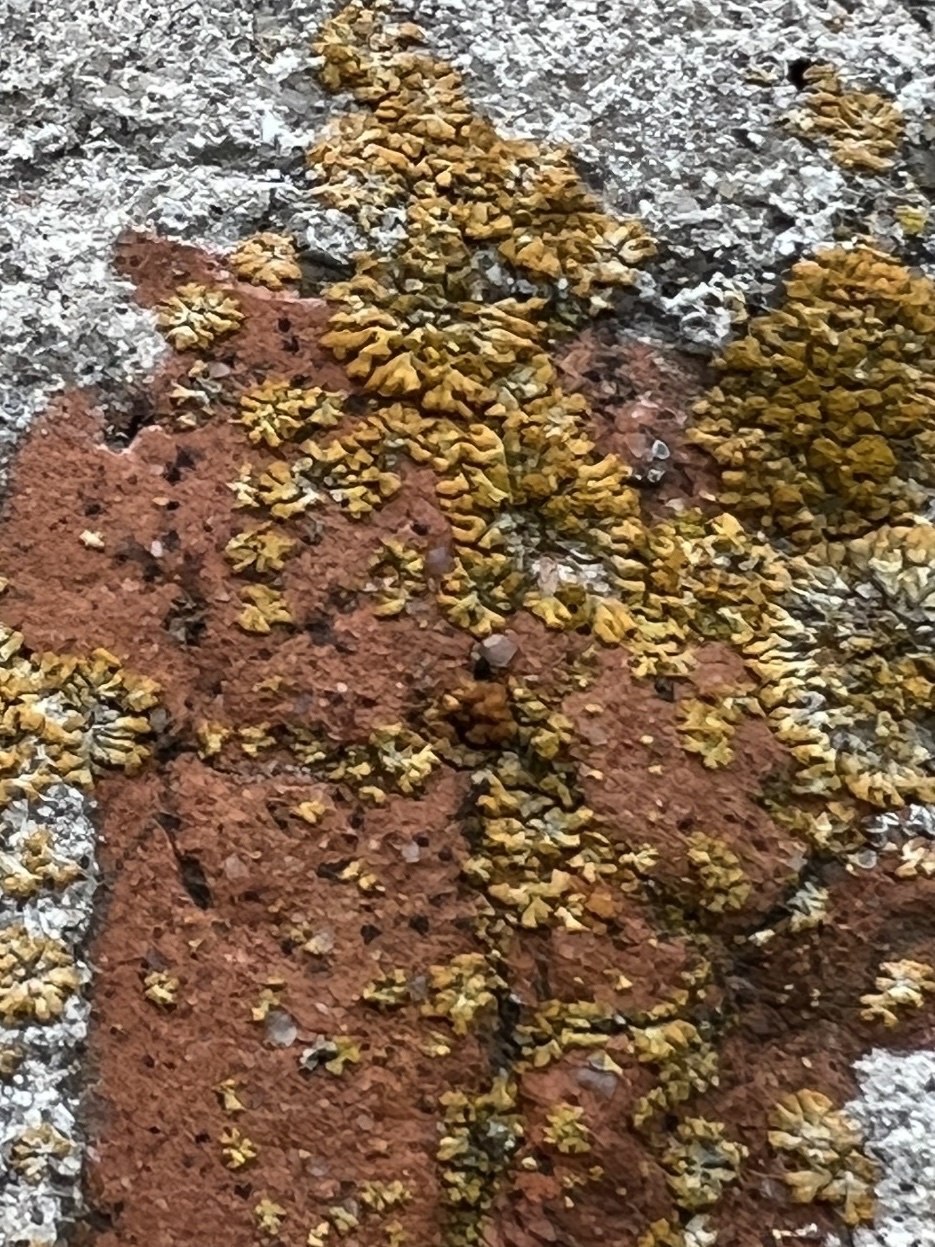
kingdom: Fungi
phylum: Ascomycota
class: Lecanoromycetes
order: Teloschistales
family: Teloschistaceae
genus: Calogaya
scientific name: Calogaya decipiens
